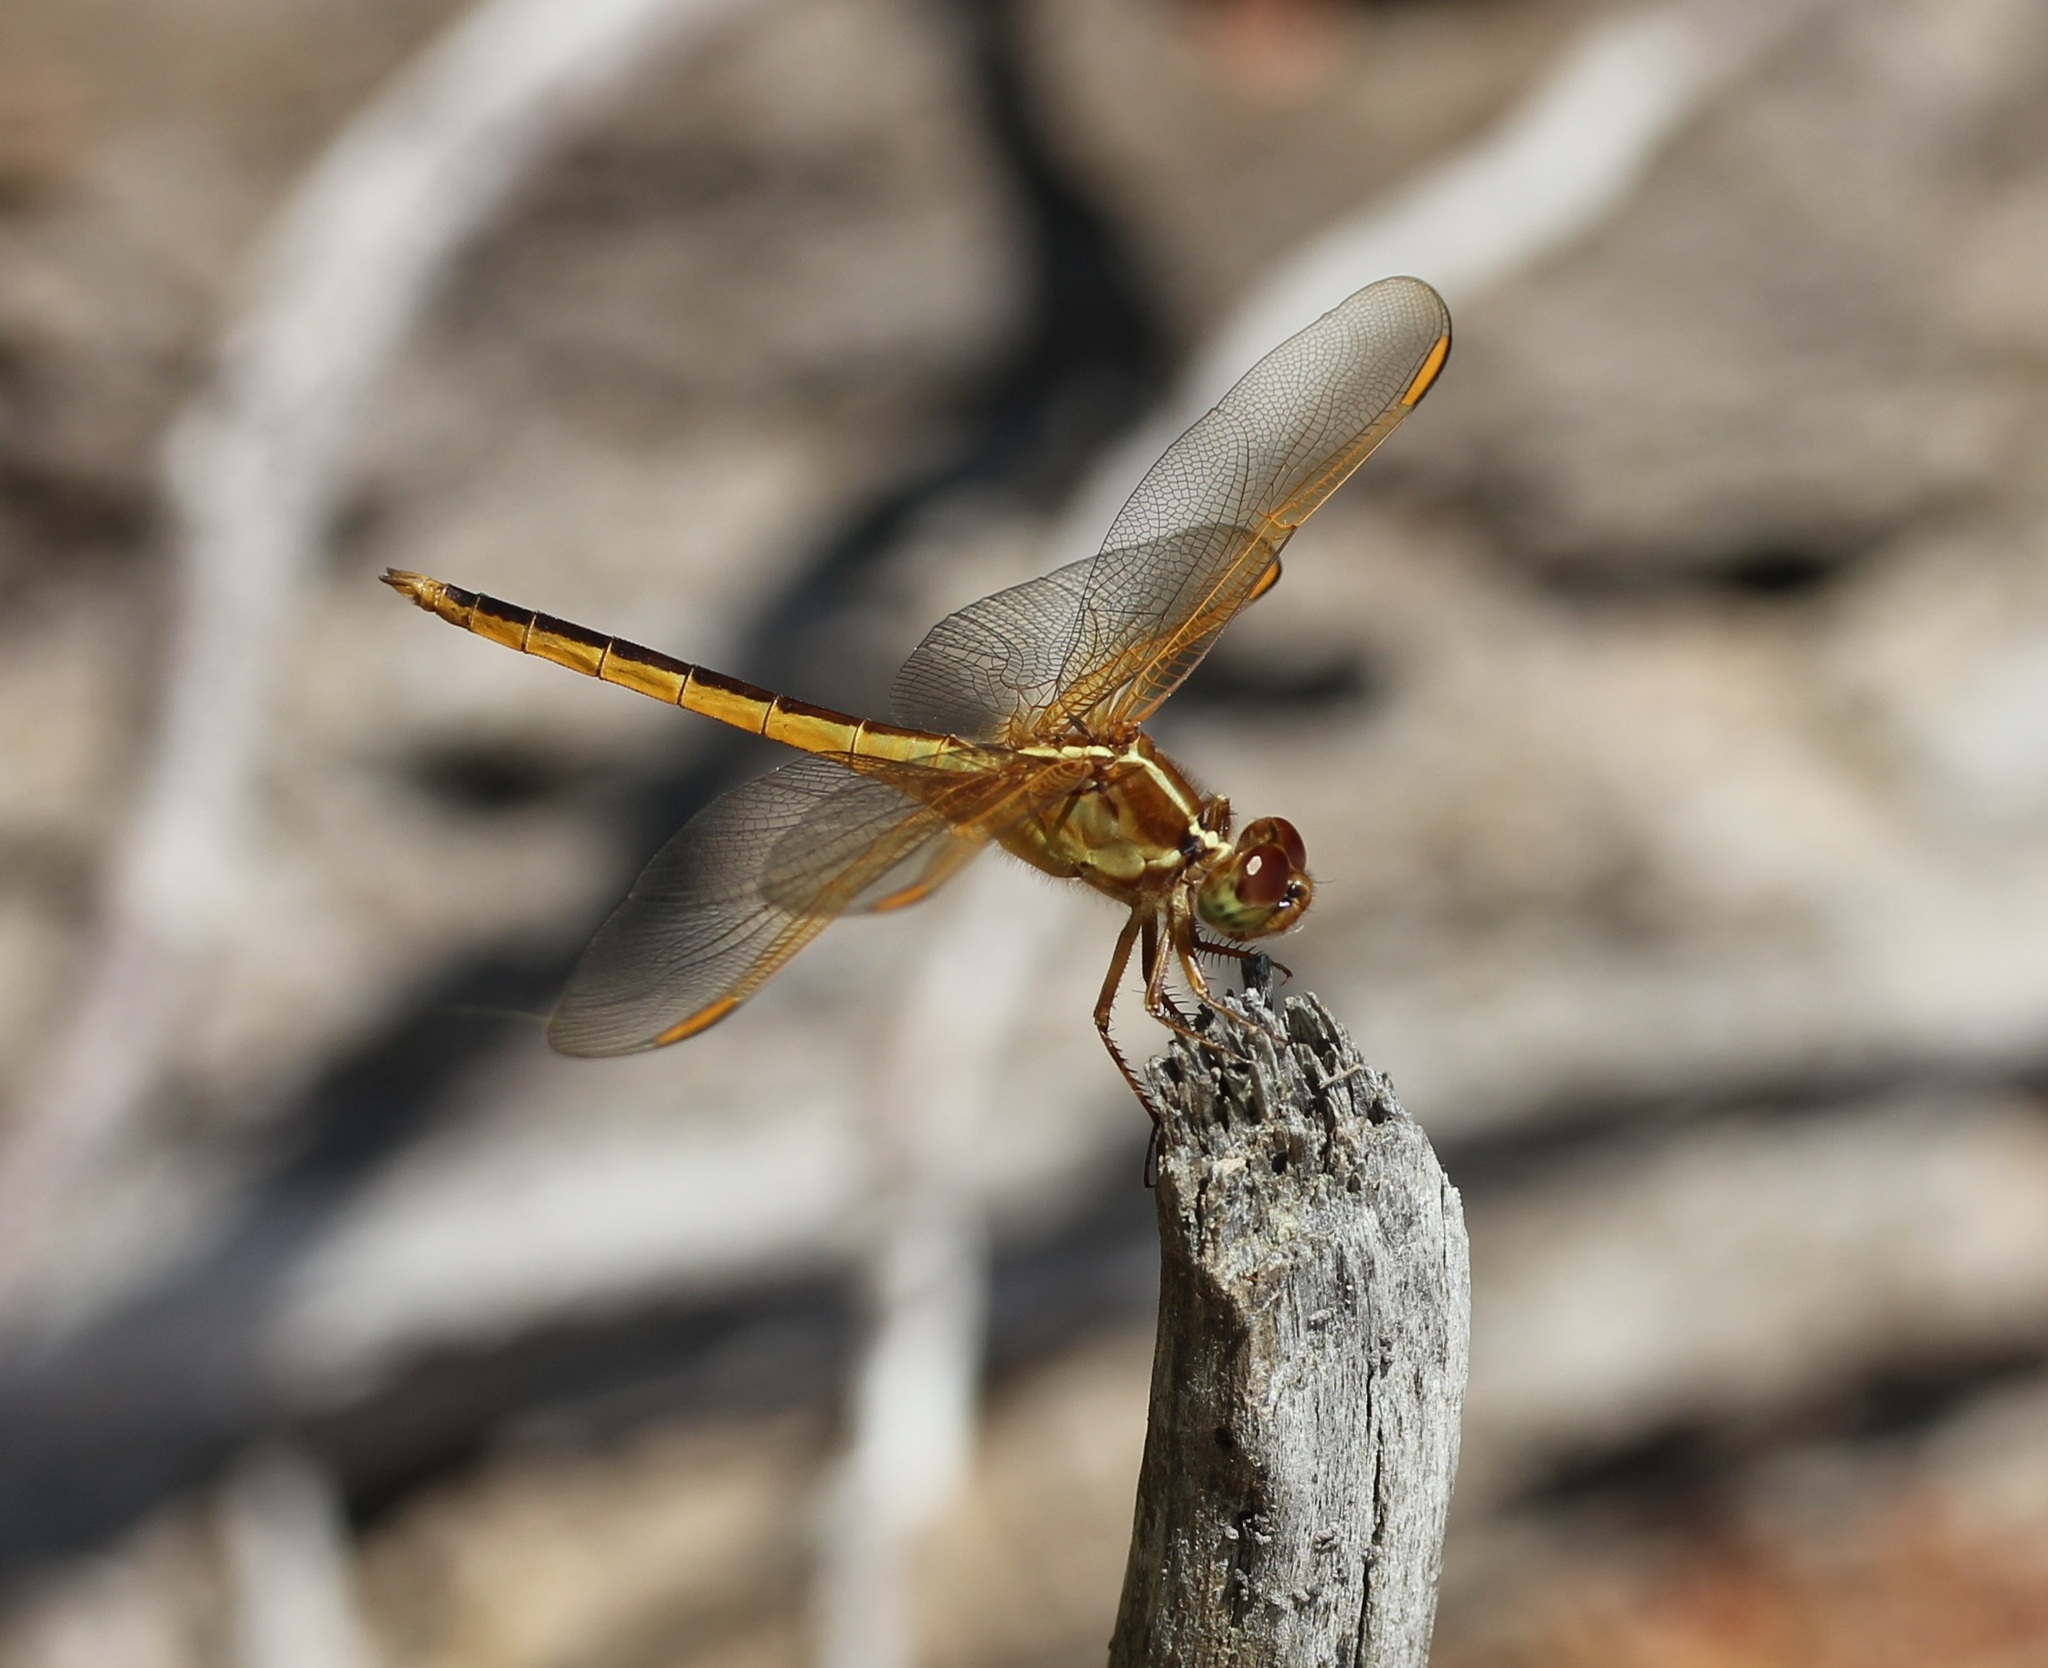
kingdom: Animalia
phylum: Arthropoda
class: Insecta
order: Odonata
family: Libellulidae
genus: Libellula
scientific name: Libellula needhami
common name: Needham's skimmer
